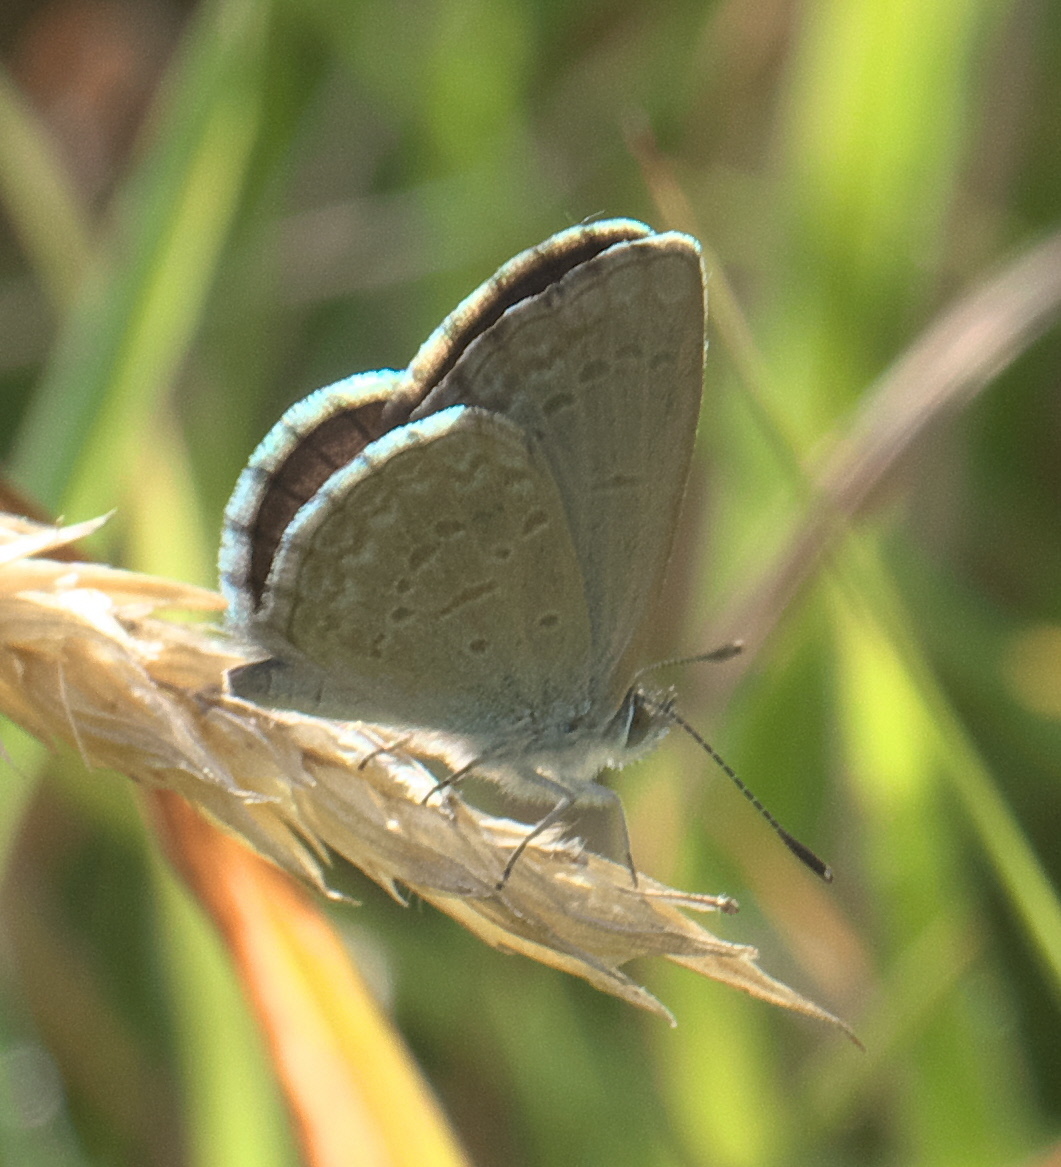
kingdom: Animalia
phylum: Arthropoda
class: Insecta
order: Lepidoptera
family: Lycaenidae
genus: Zizina
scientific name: Zizina labradus
